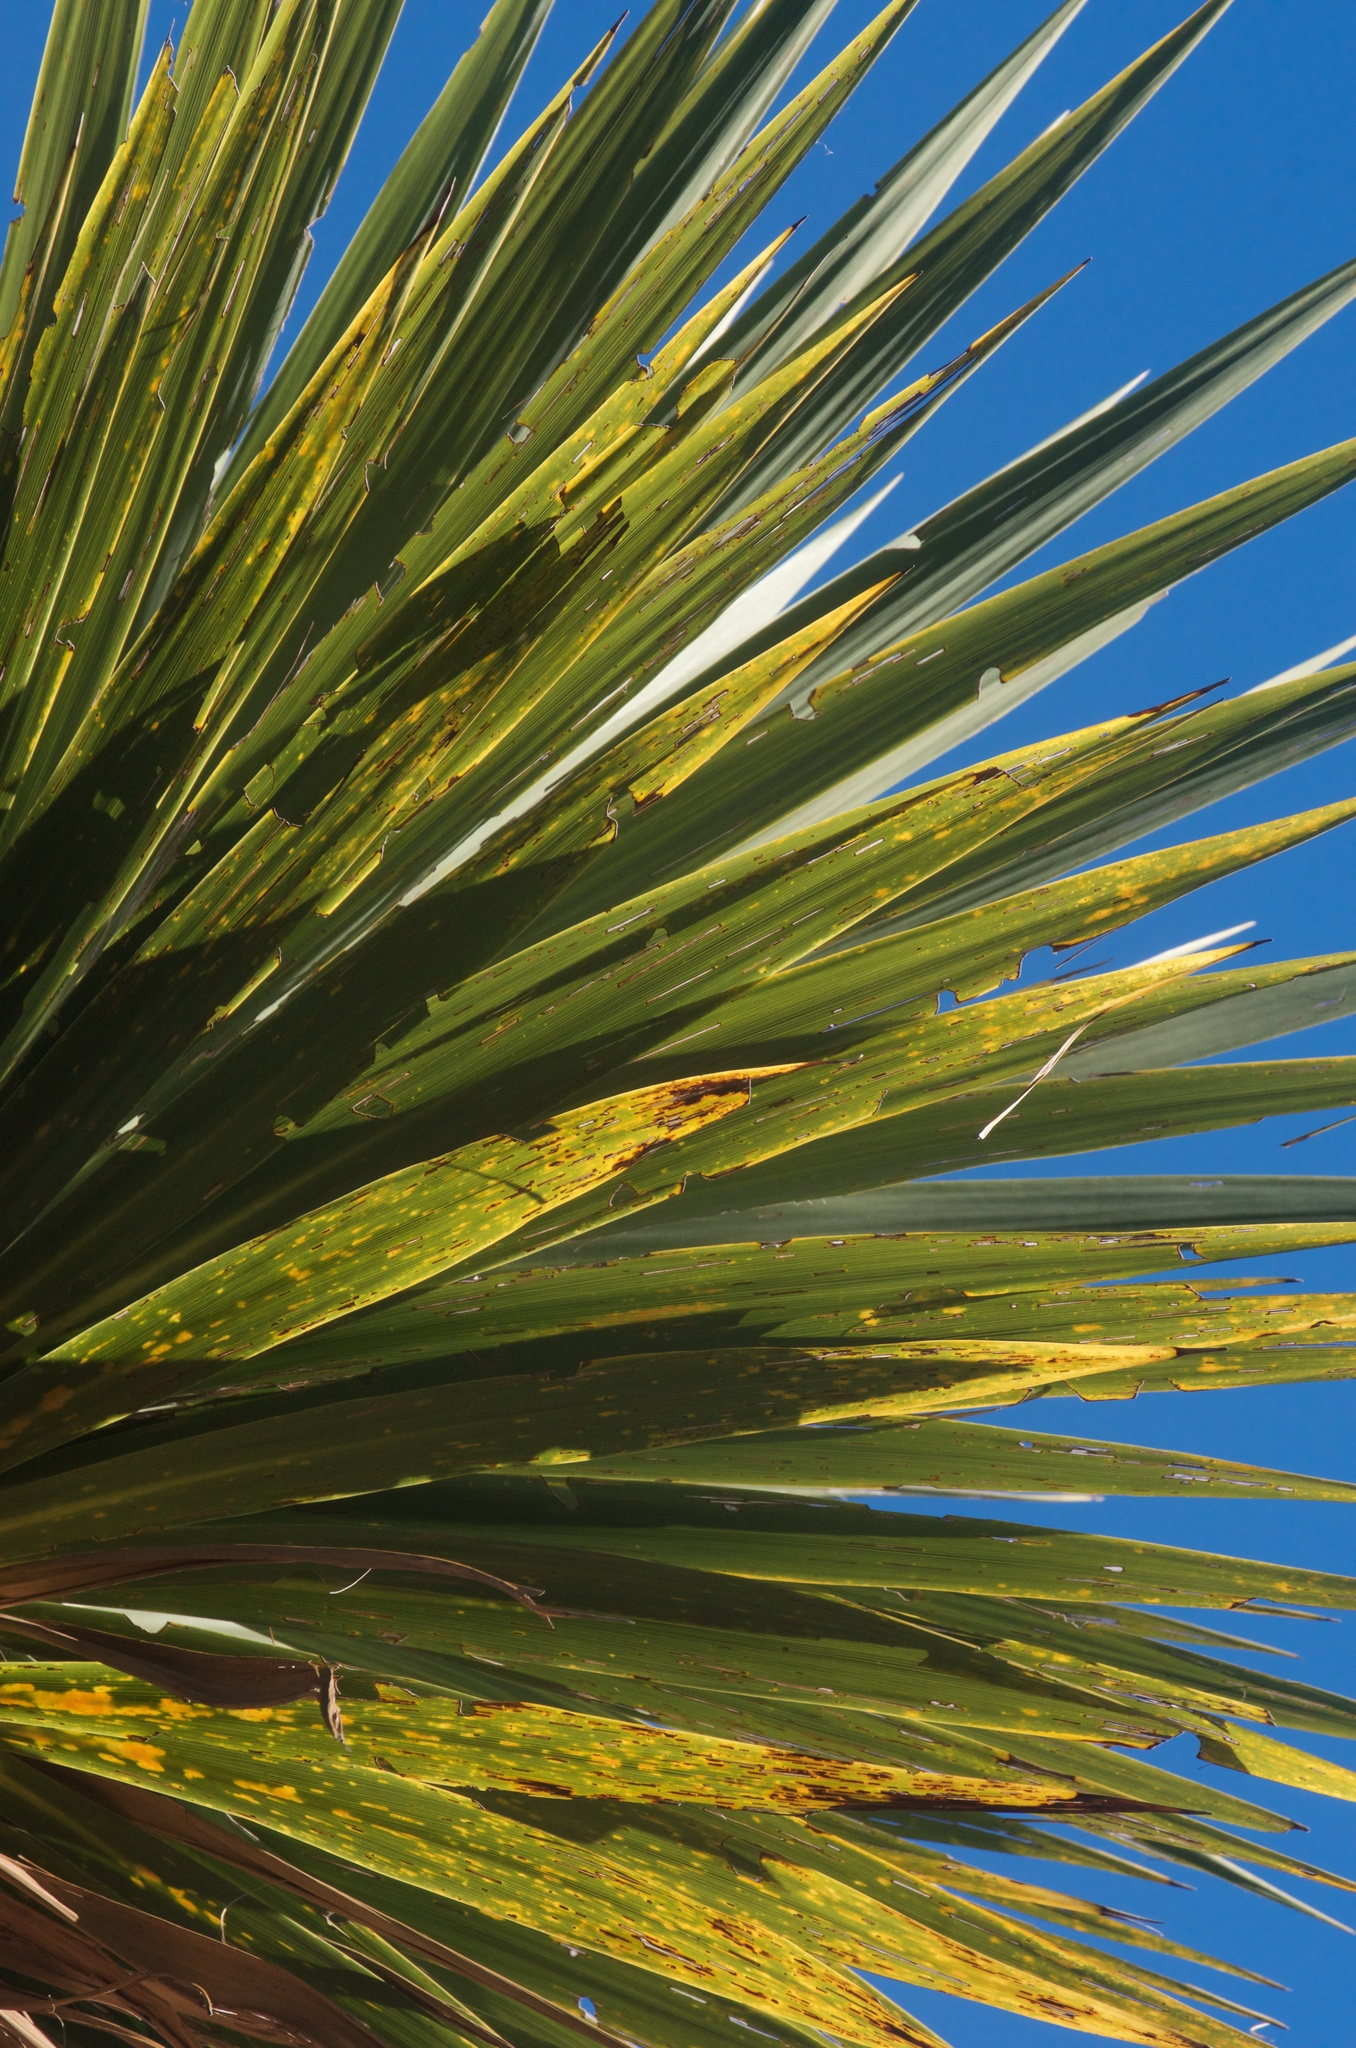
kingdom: Plantae
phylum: Tracheophyta
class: Liliopsida
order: Asparagales
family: Asparagaceae
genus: Cordyline
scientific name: Cordyline australis
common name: Cabbage-palm
